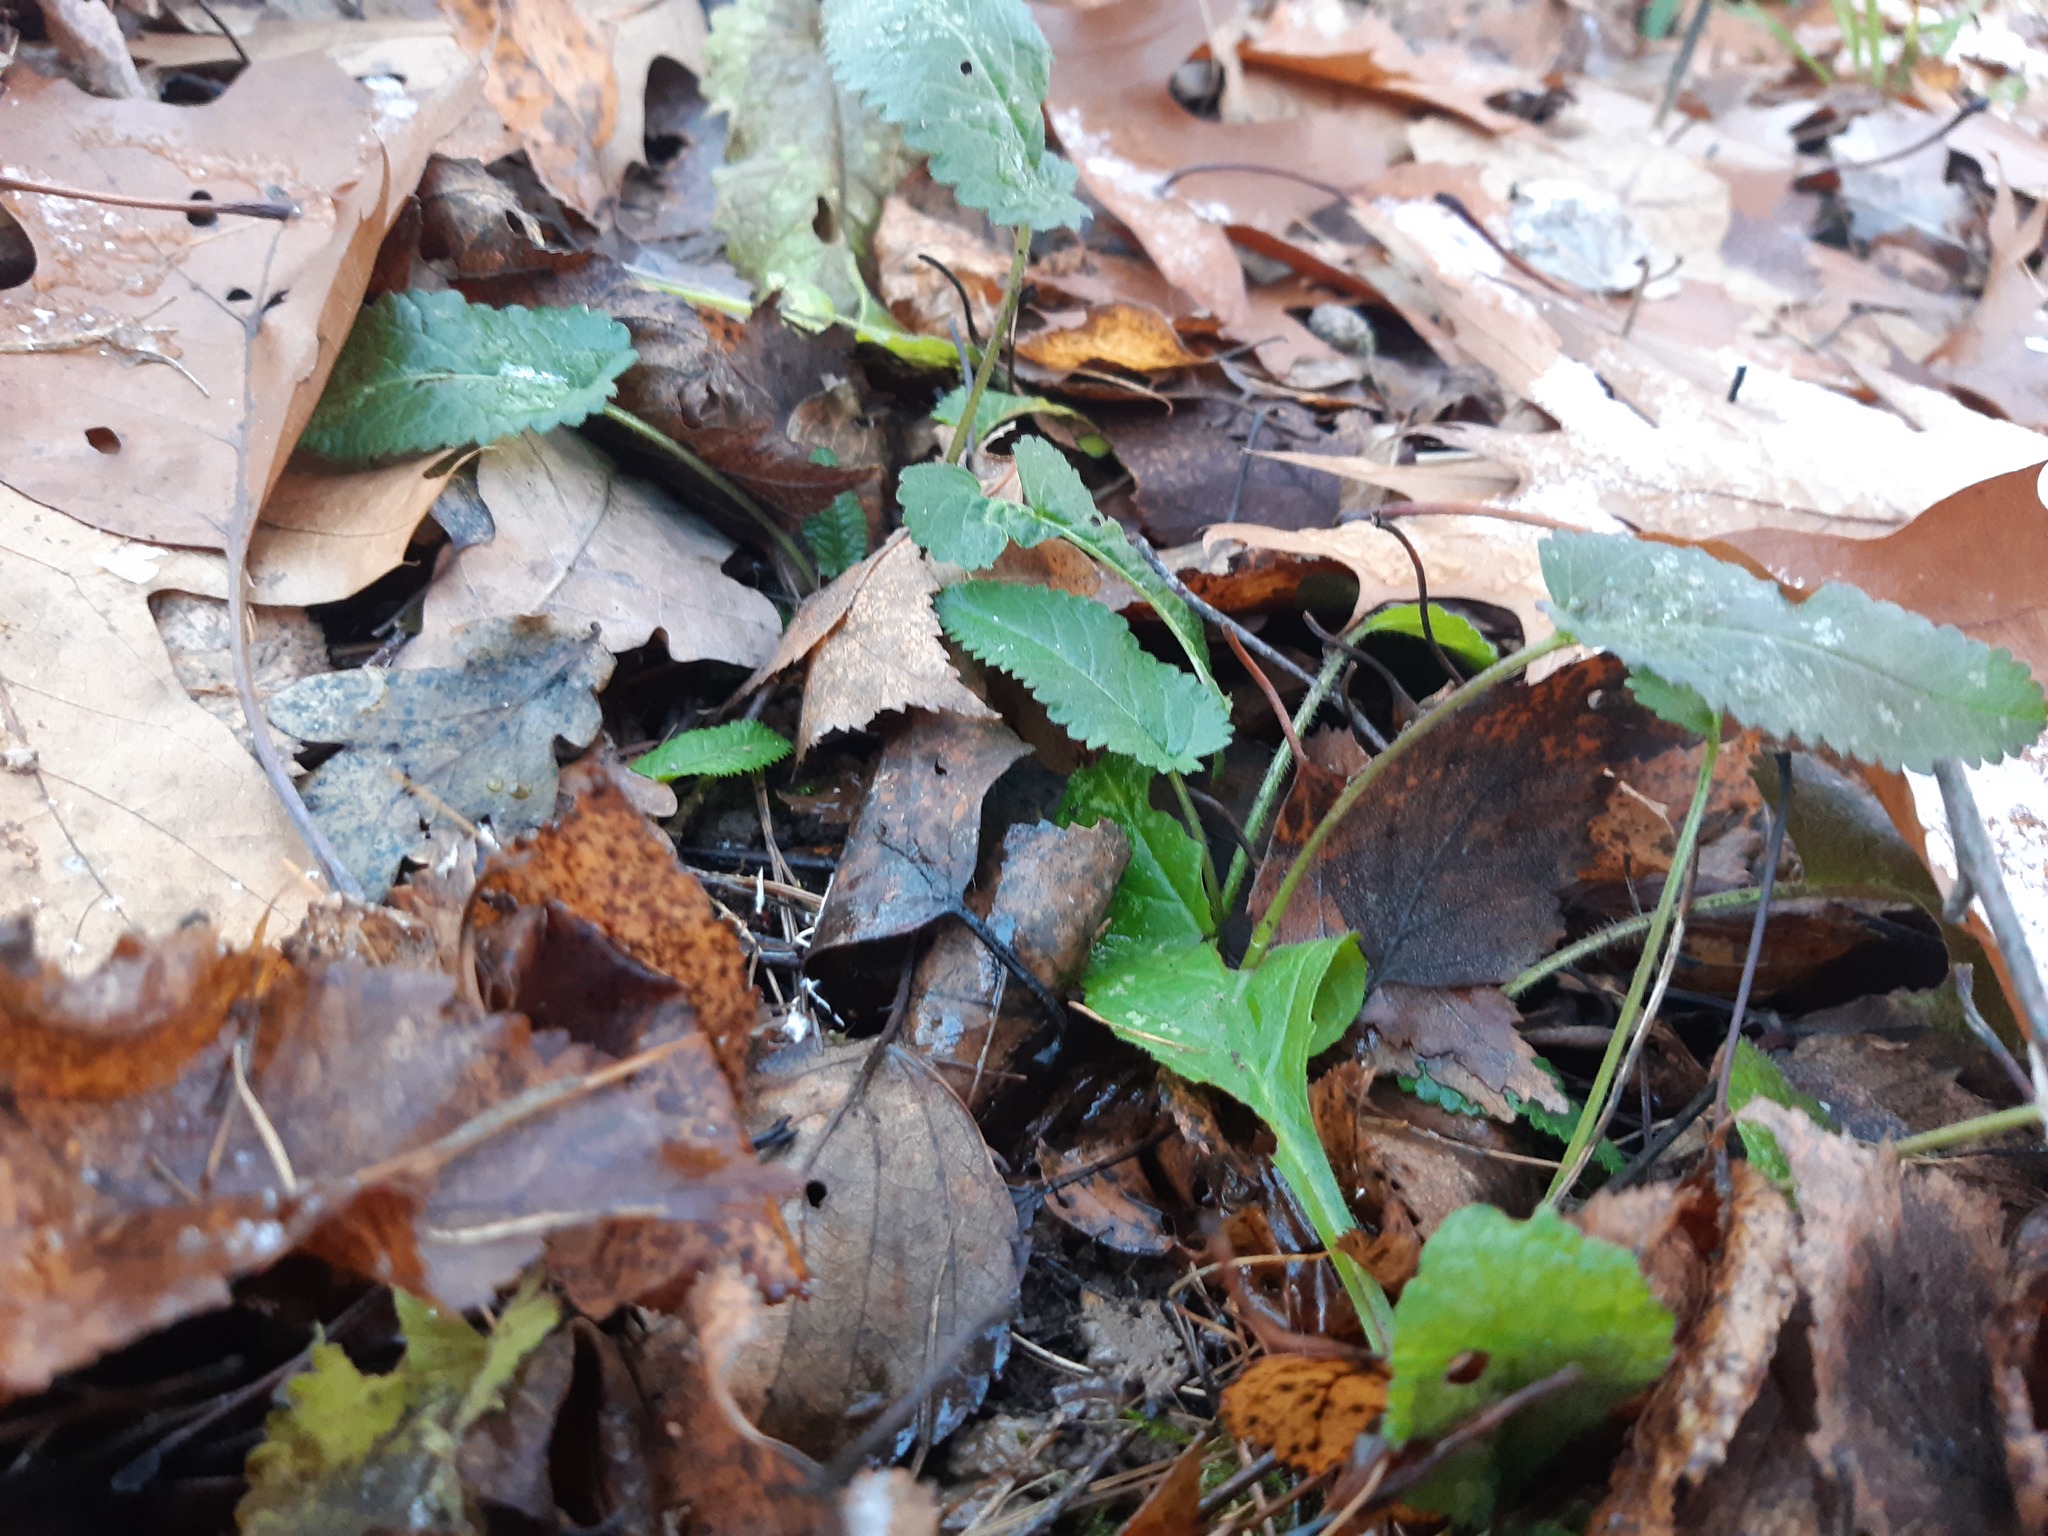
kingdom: Plantae
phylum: Tracheophyta
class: Magnoliopsida
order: Lamiales
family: Lamiaceae
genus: Betonica
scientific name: Betonica officinalis
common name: Bishop's-wort
